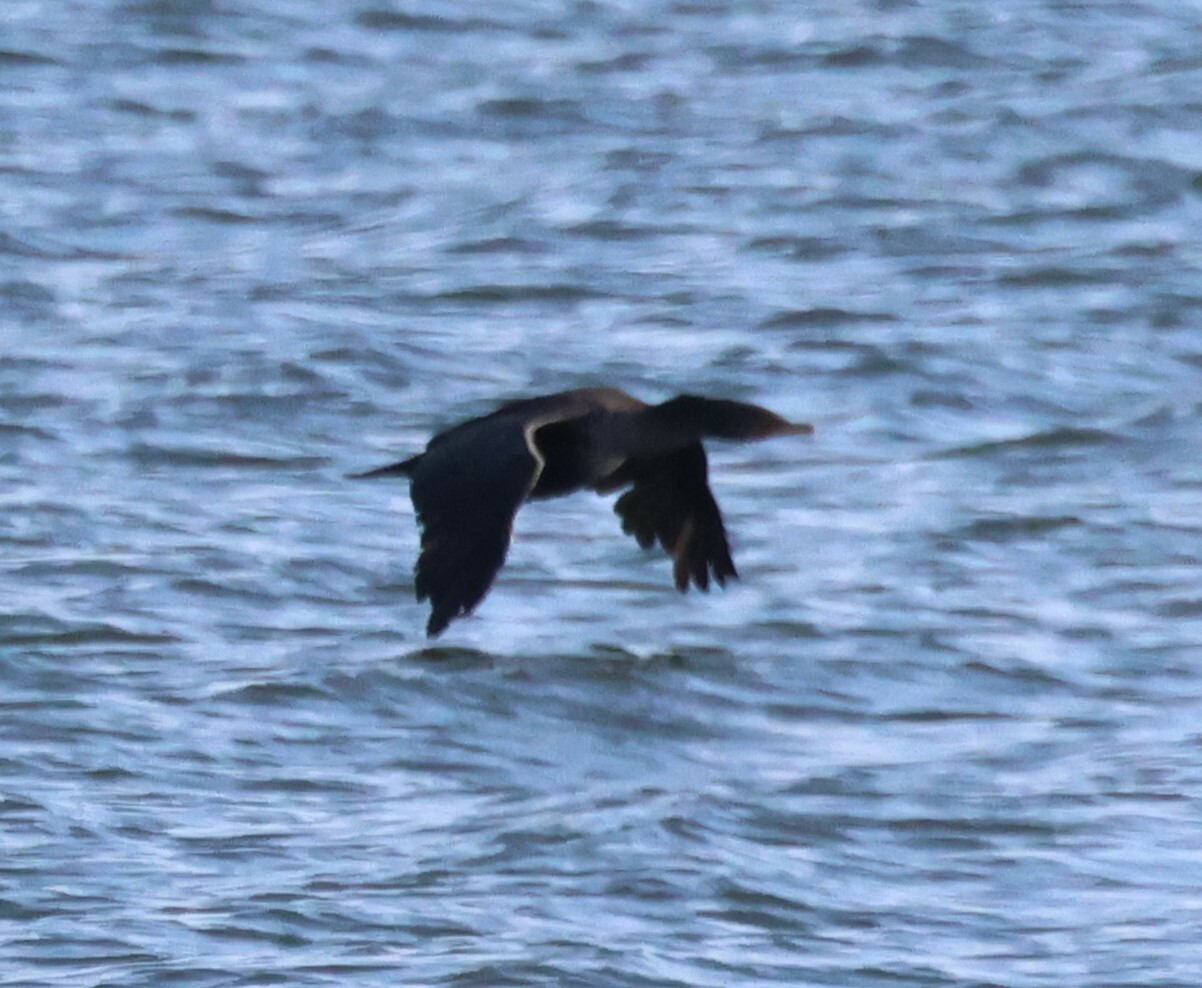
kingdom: Animalia
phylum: Chordata
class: Aves
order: Suliformes
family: Phalacrocoracidae
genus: Phalacrocorax
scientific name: Phalacrocorax auritus
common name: Double-crested cormorant
